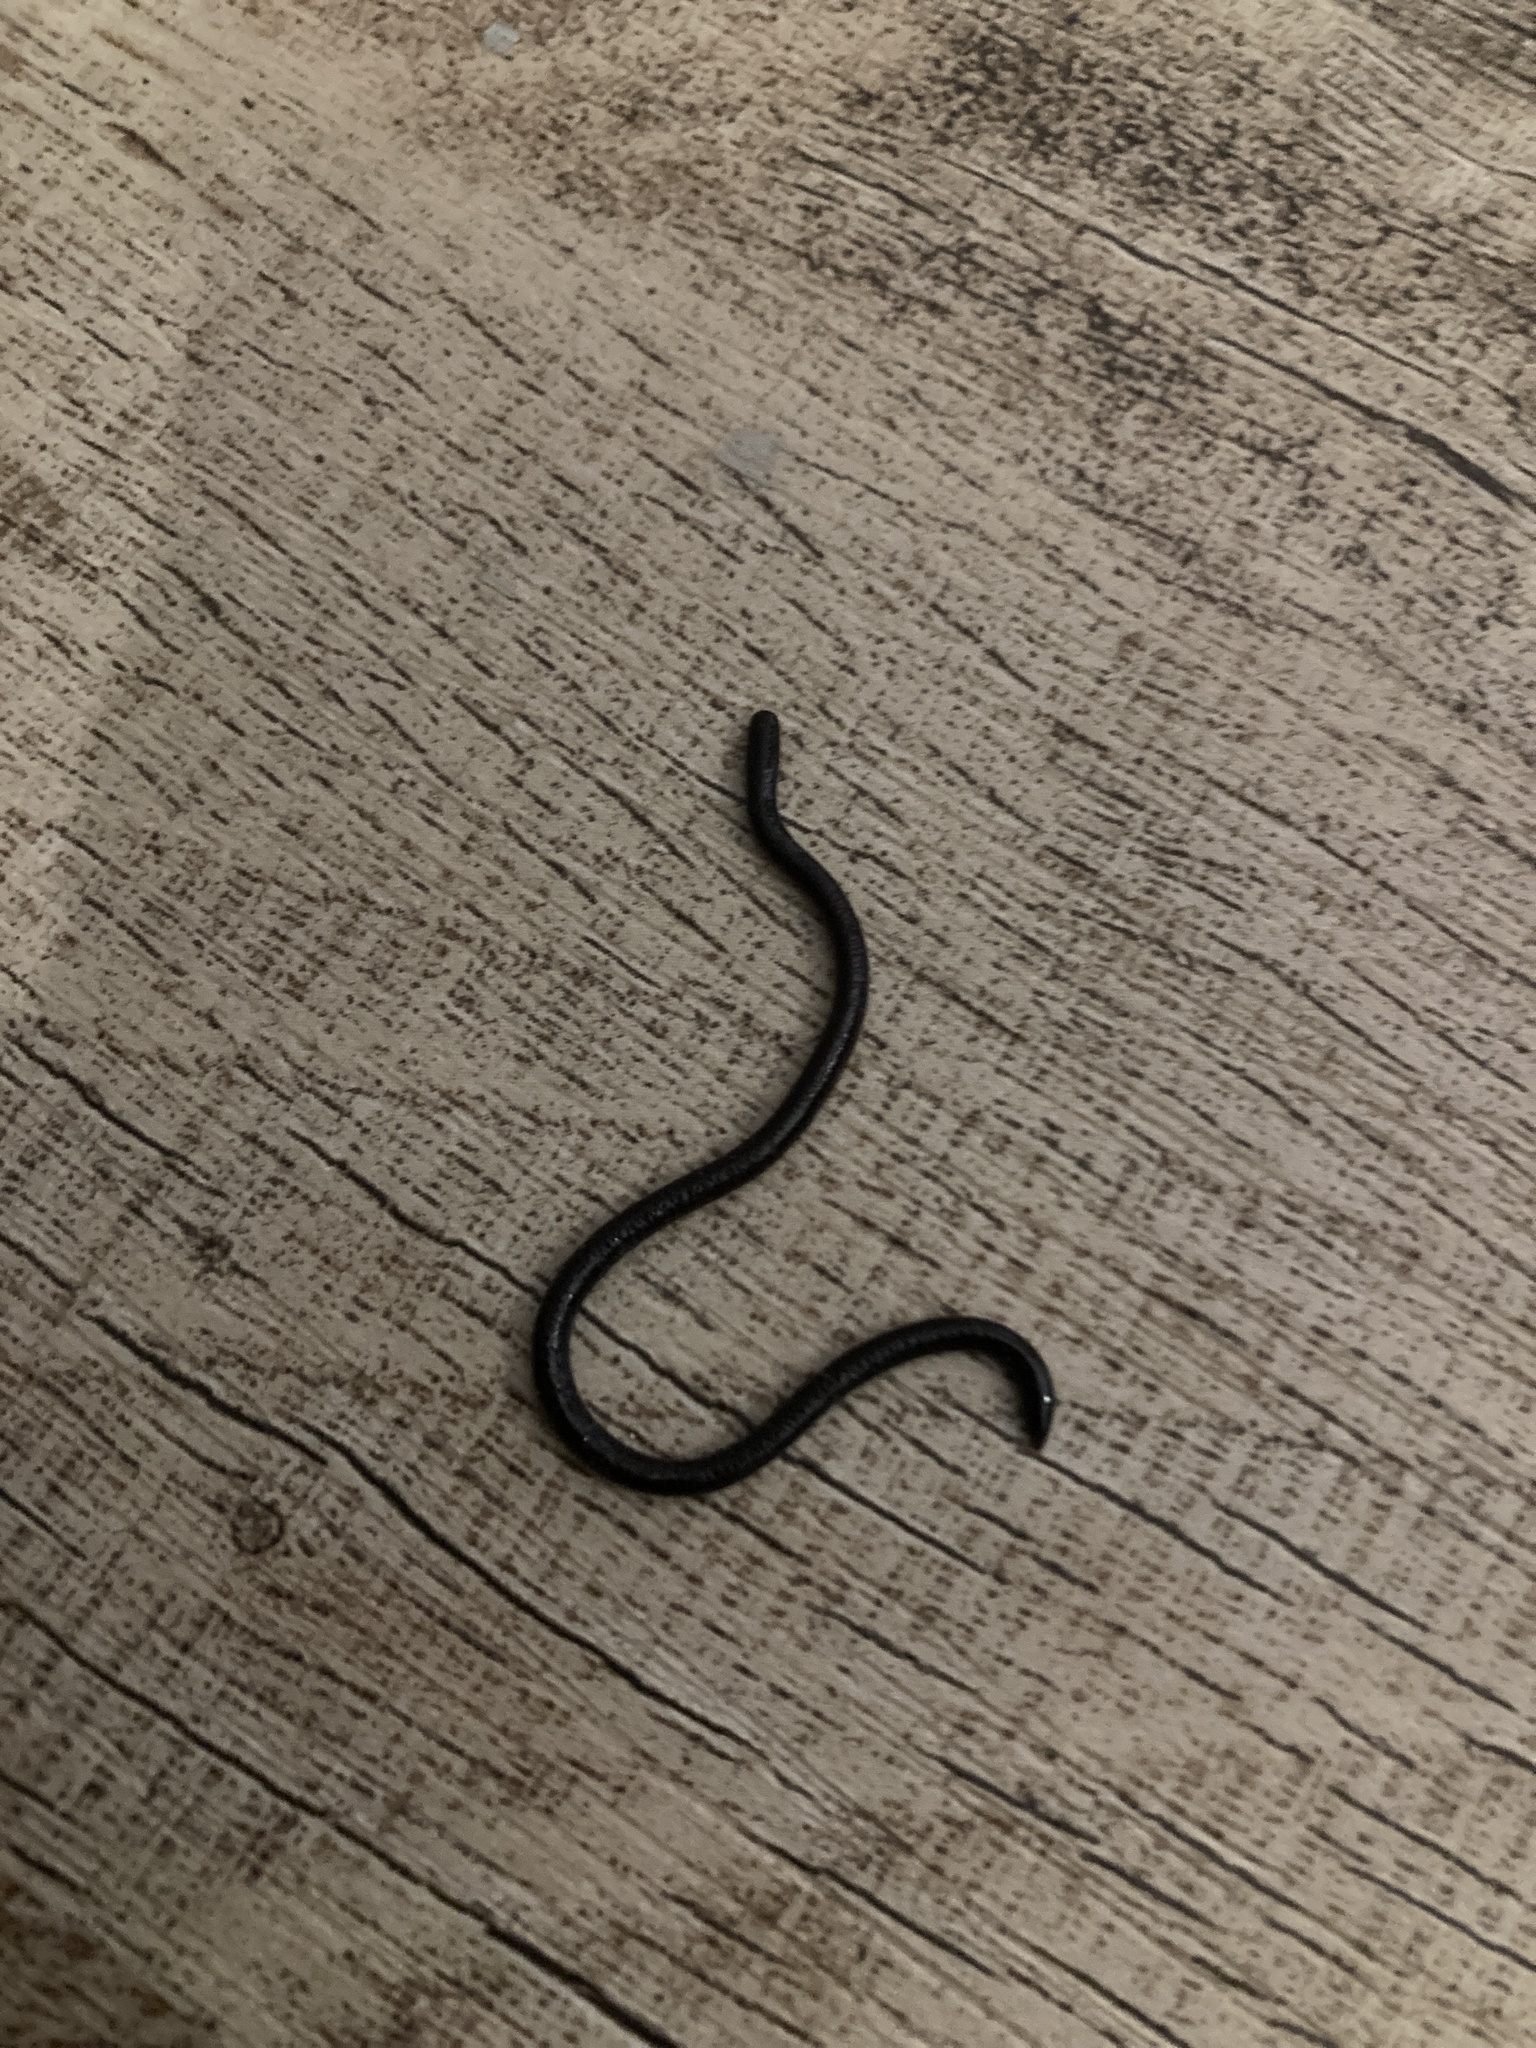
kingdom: Animalia
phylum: Chordata
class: Squamata
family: Typhlopidae
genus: Indotyphlops
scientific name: Indotyphlops braminus
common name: Brahminy blindsnake
